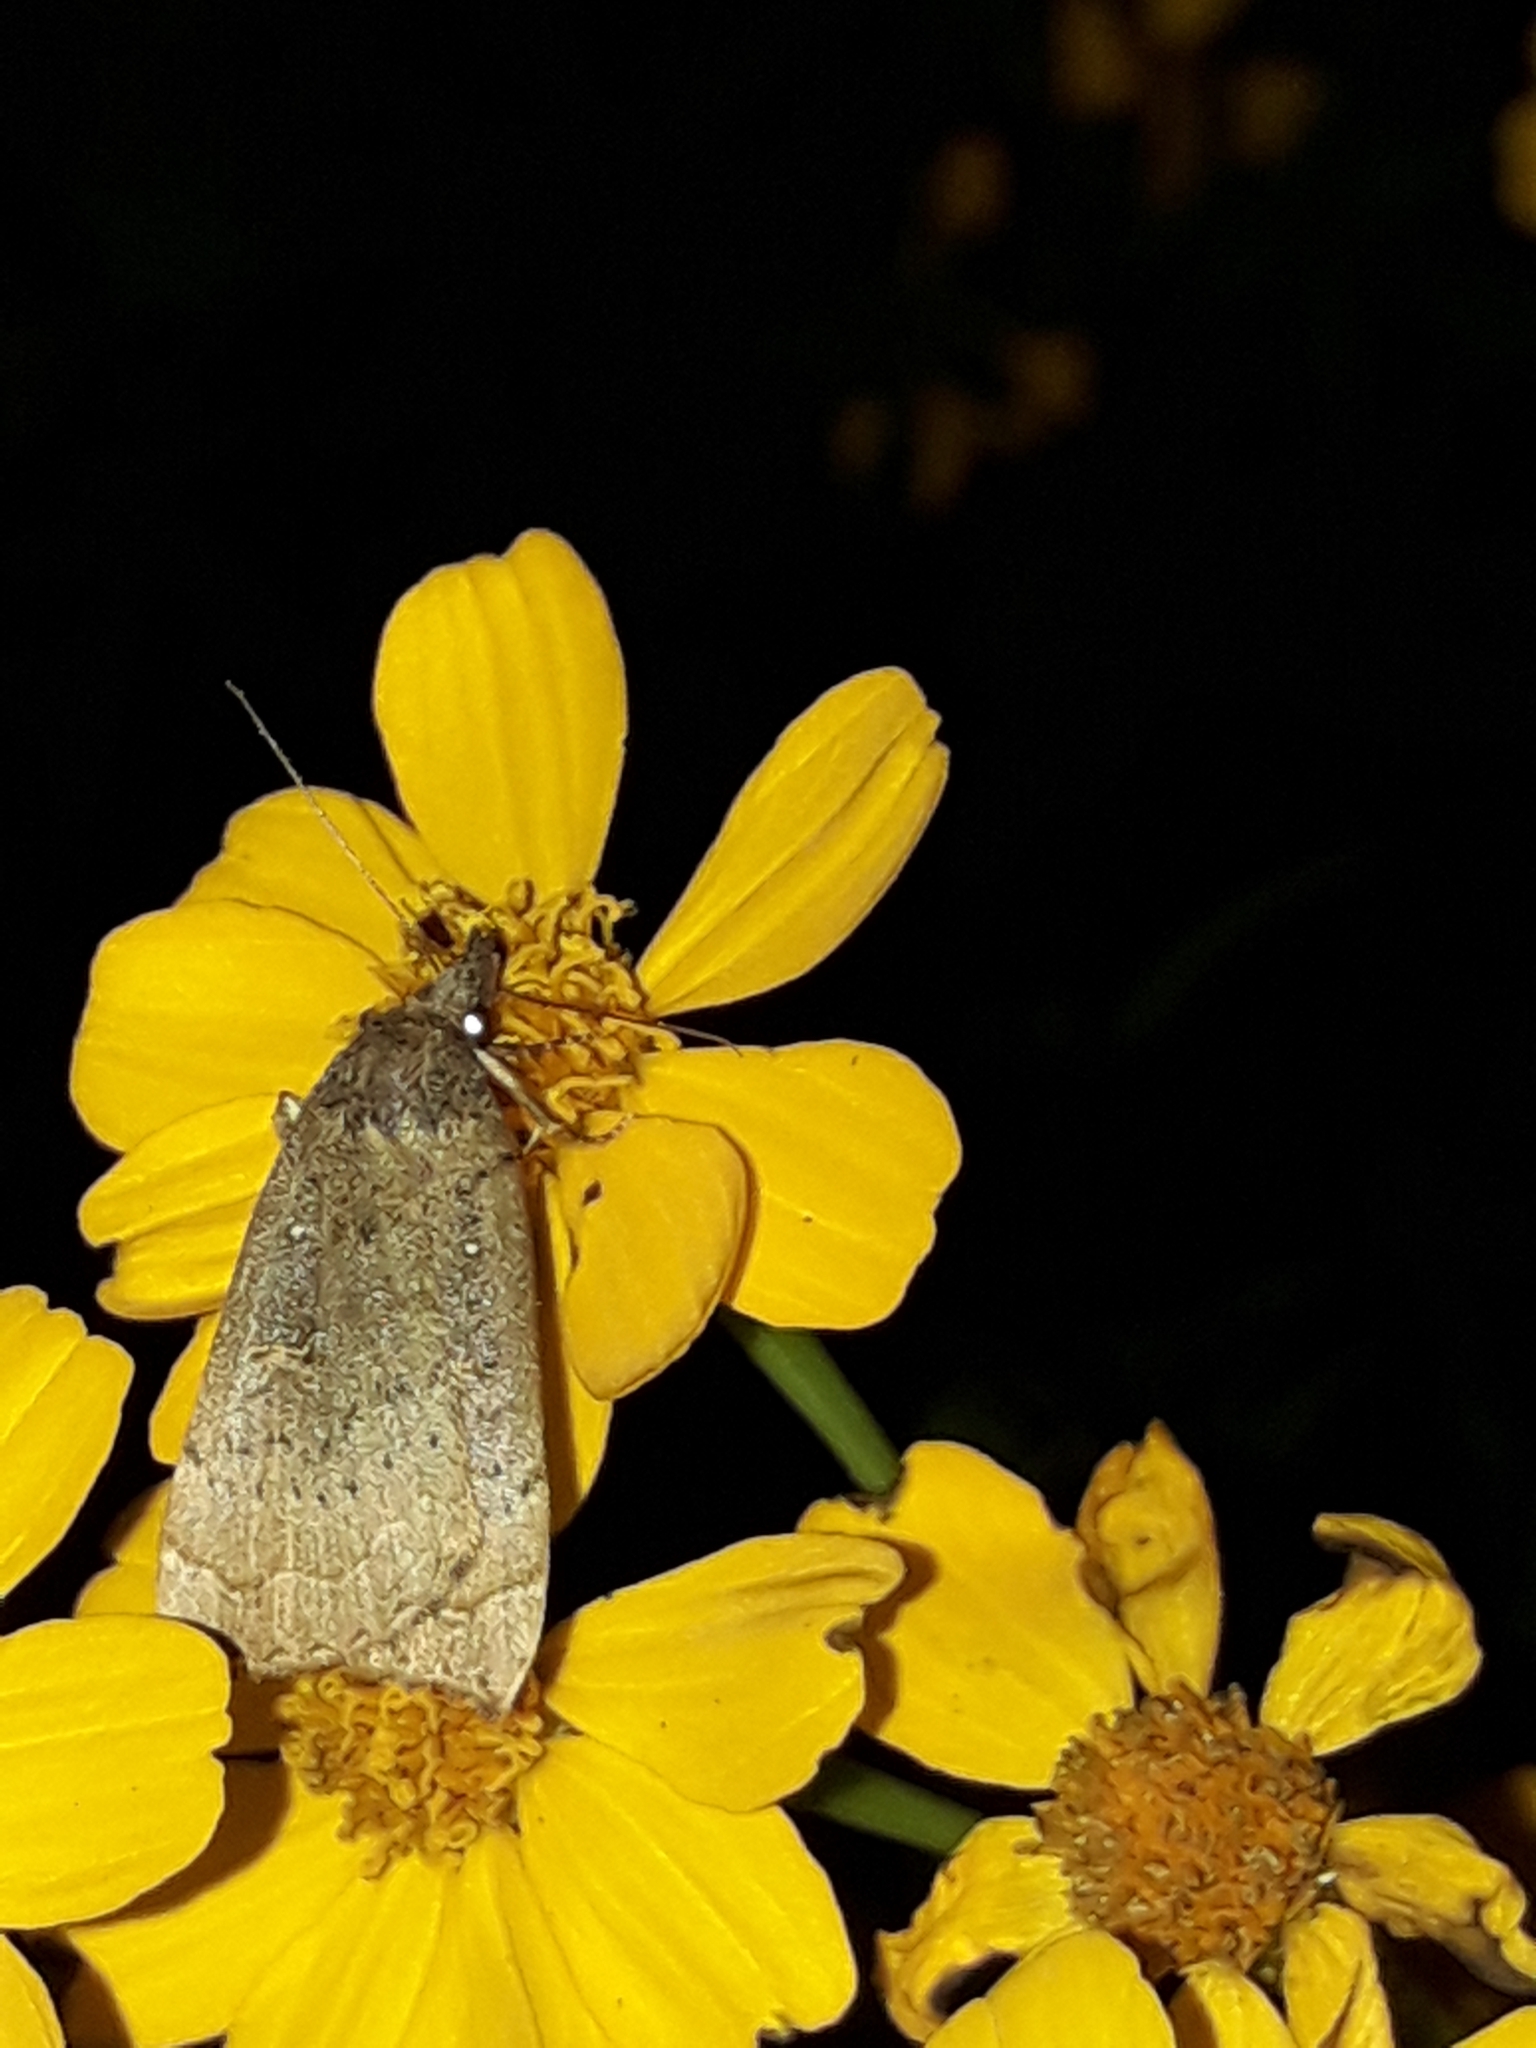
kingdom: Animalia
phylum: Arthropoda
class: Insecta
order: Lepidoptera
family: Erebidae
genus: Rhapsa
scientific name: Rhapsa scotosialis
